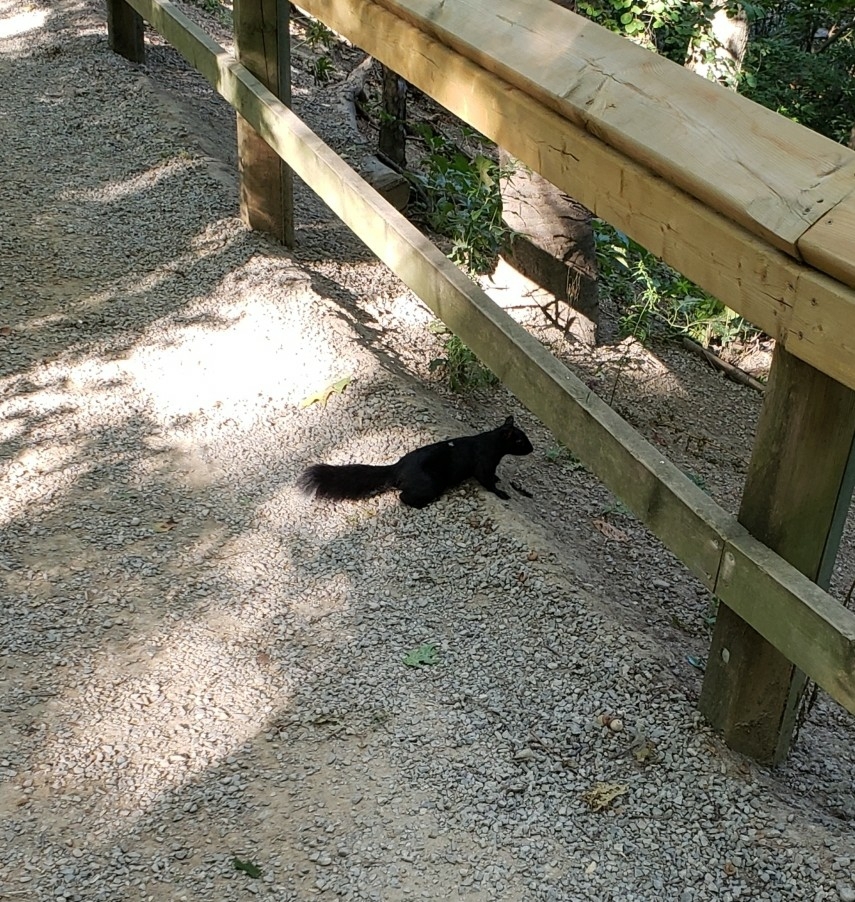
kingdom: Animalia
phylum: Chordata
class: Mammalia
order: Rodentia
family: Sciuridae
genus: Sciurus
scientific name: Sciurus carolinensis
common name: Eastern gray squirrel
